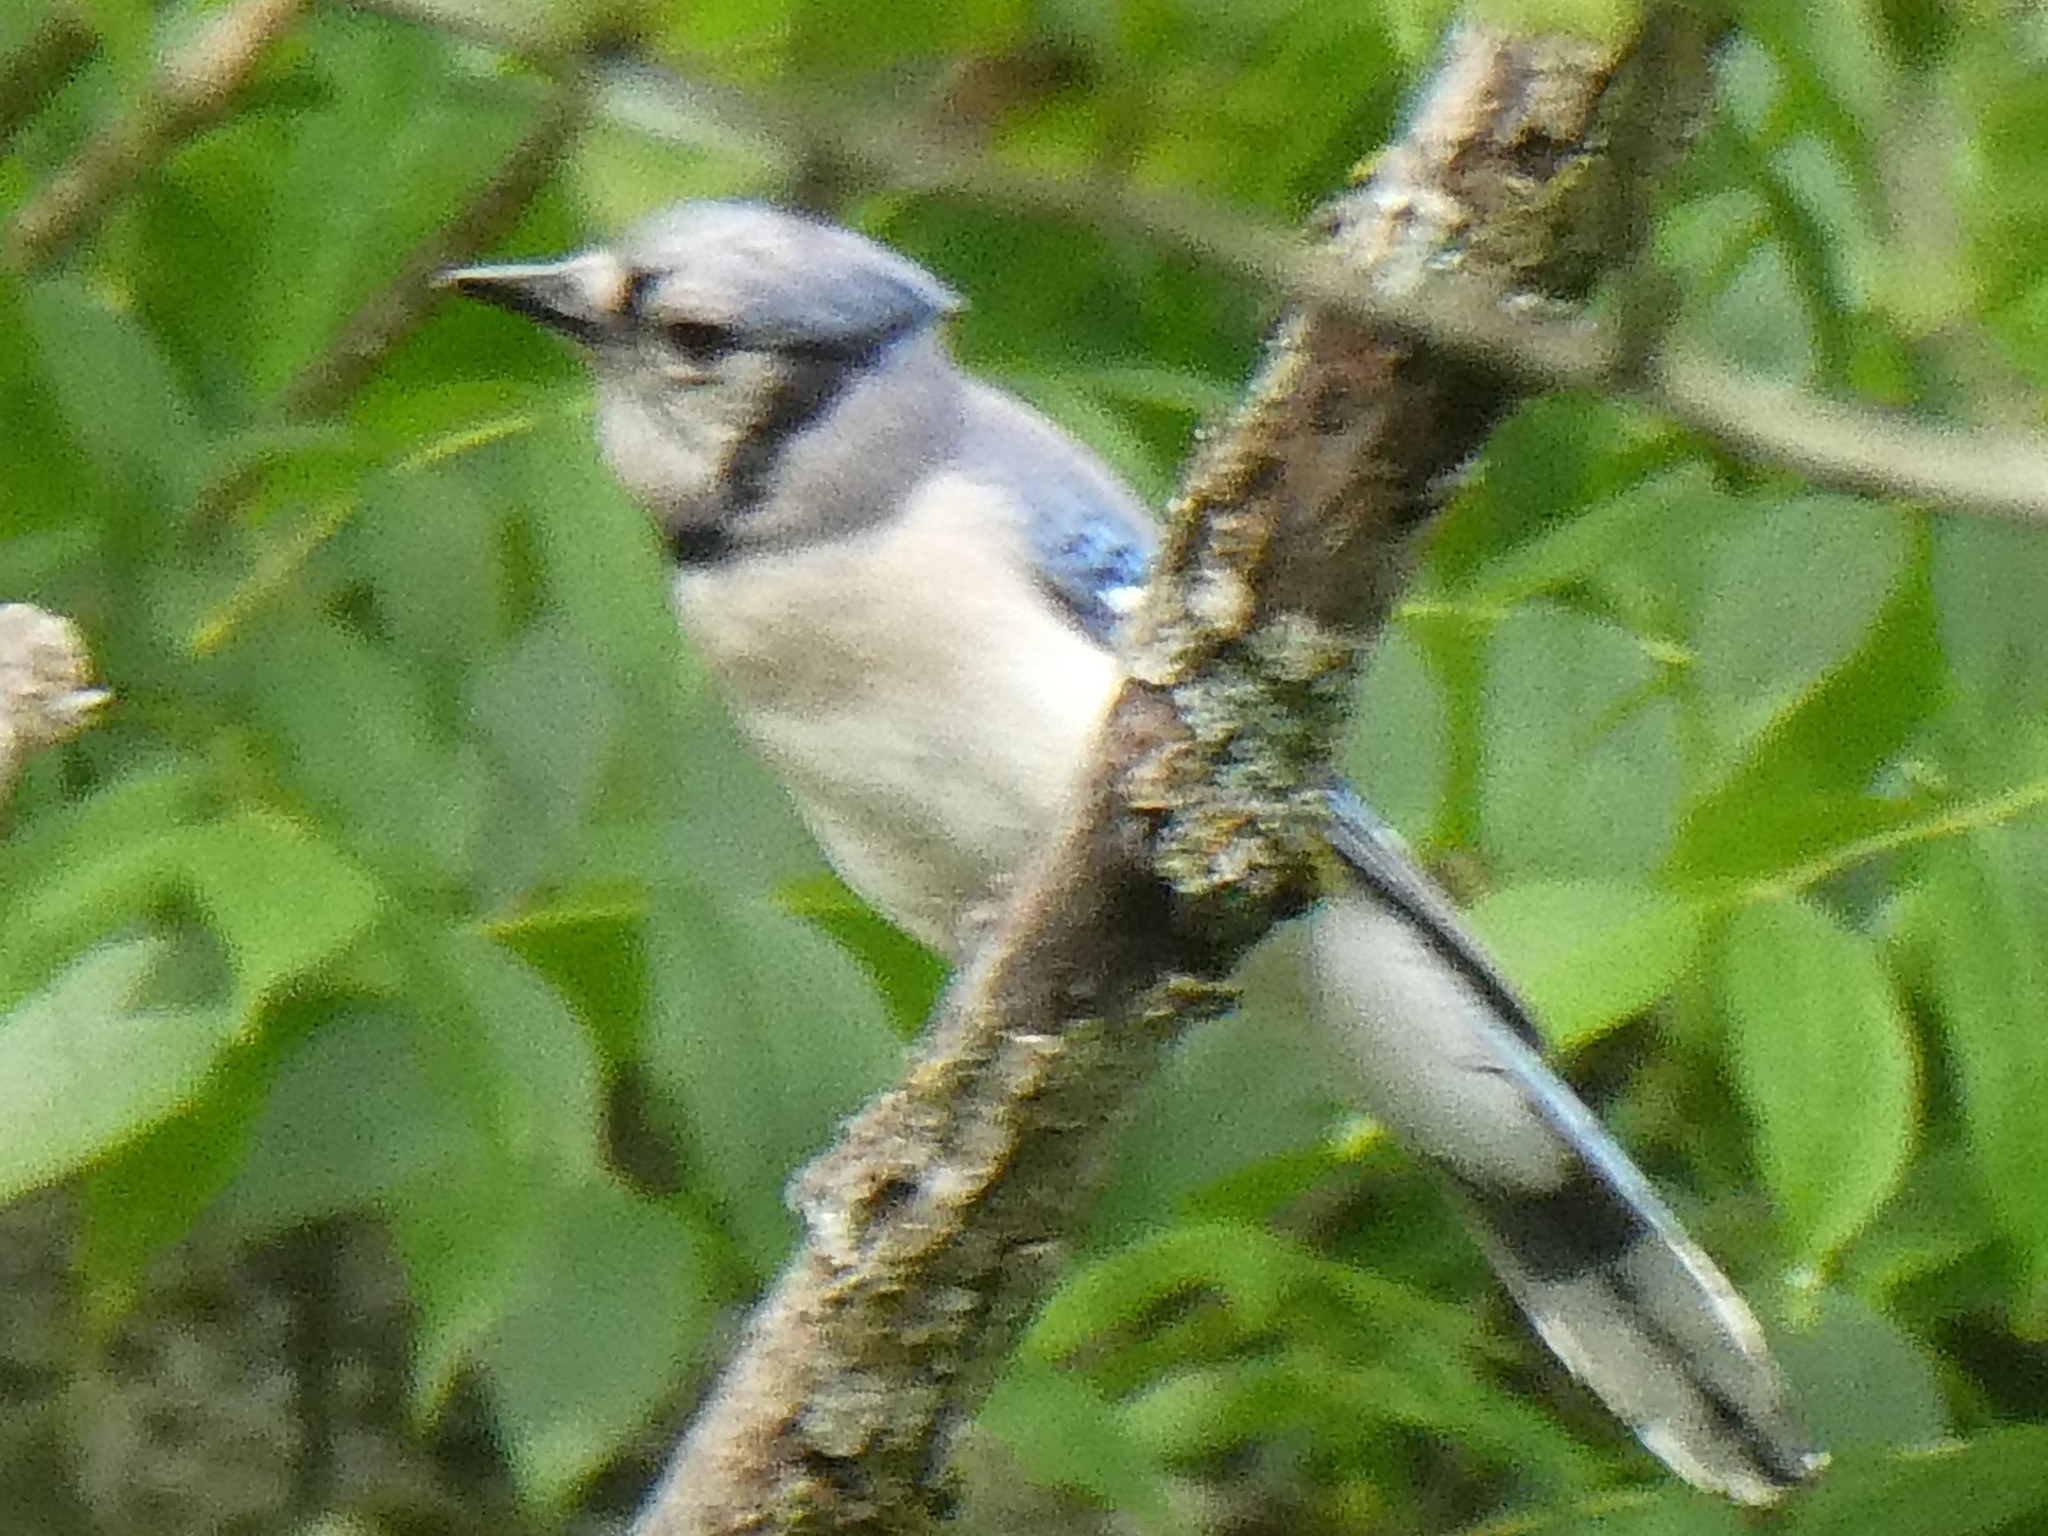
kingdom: Animalia
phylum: Chordata
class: Aves
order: Passeriformes
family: Corvidae
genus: Cyanocitta
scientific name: Cyanocitta cristata
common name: Blue jay
